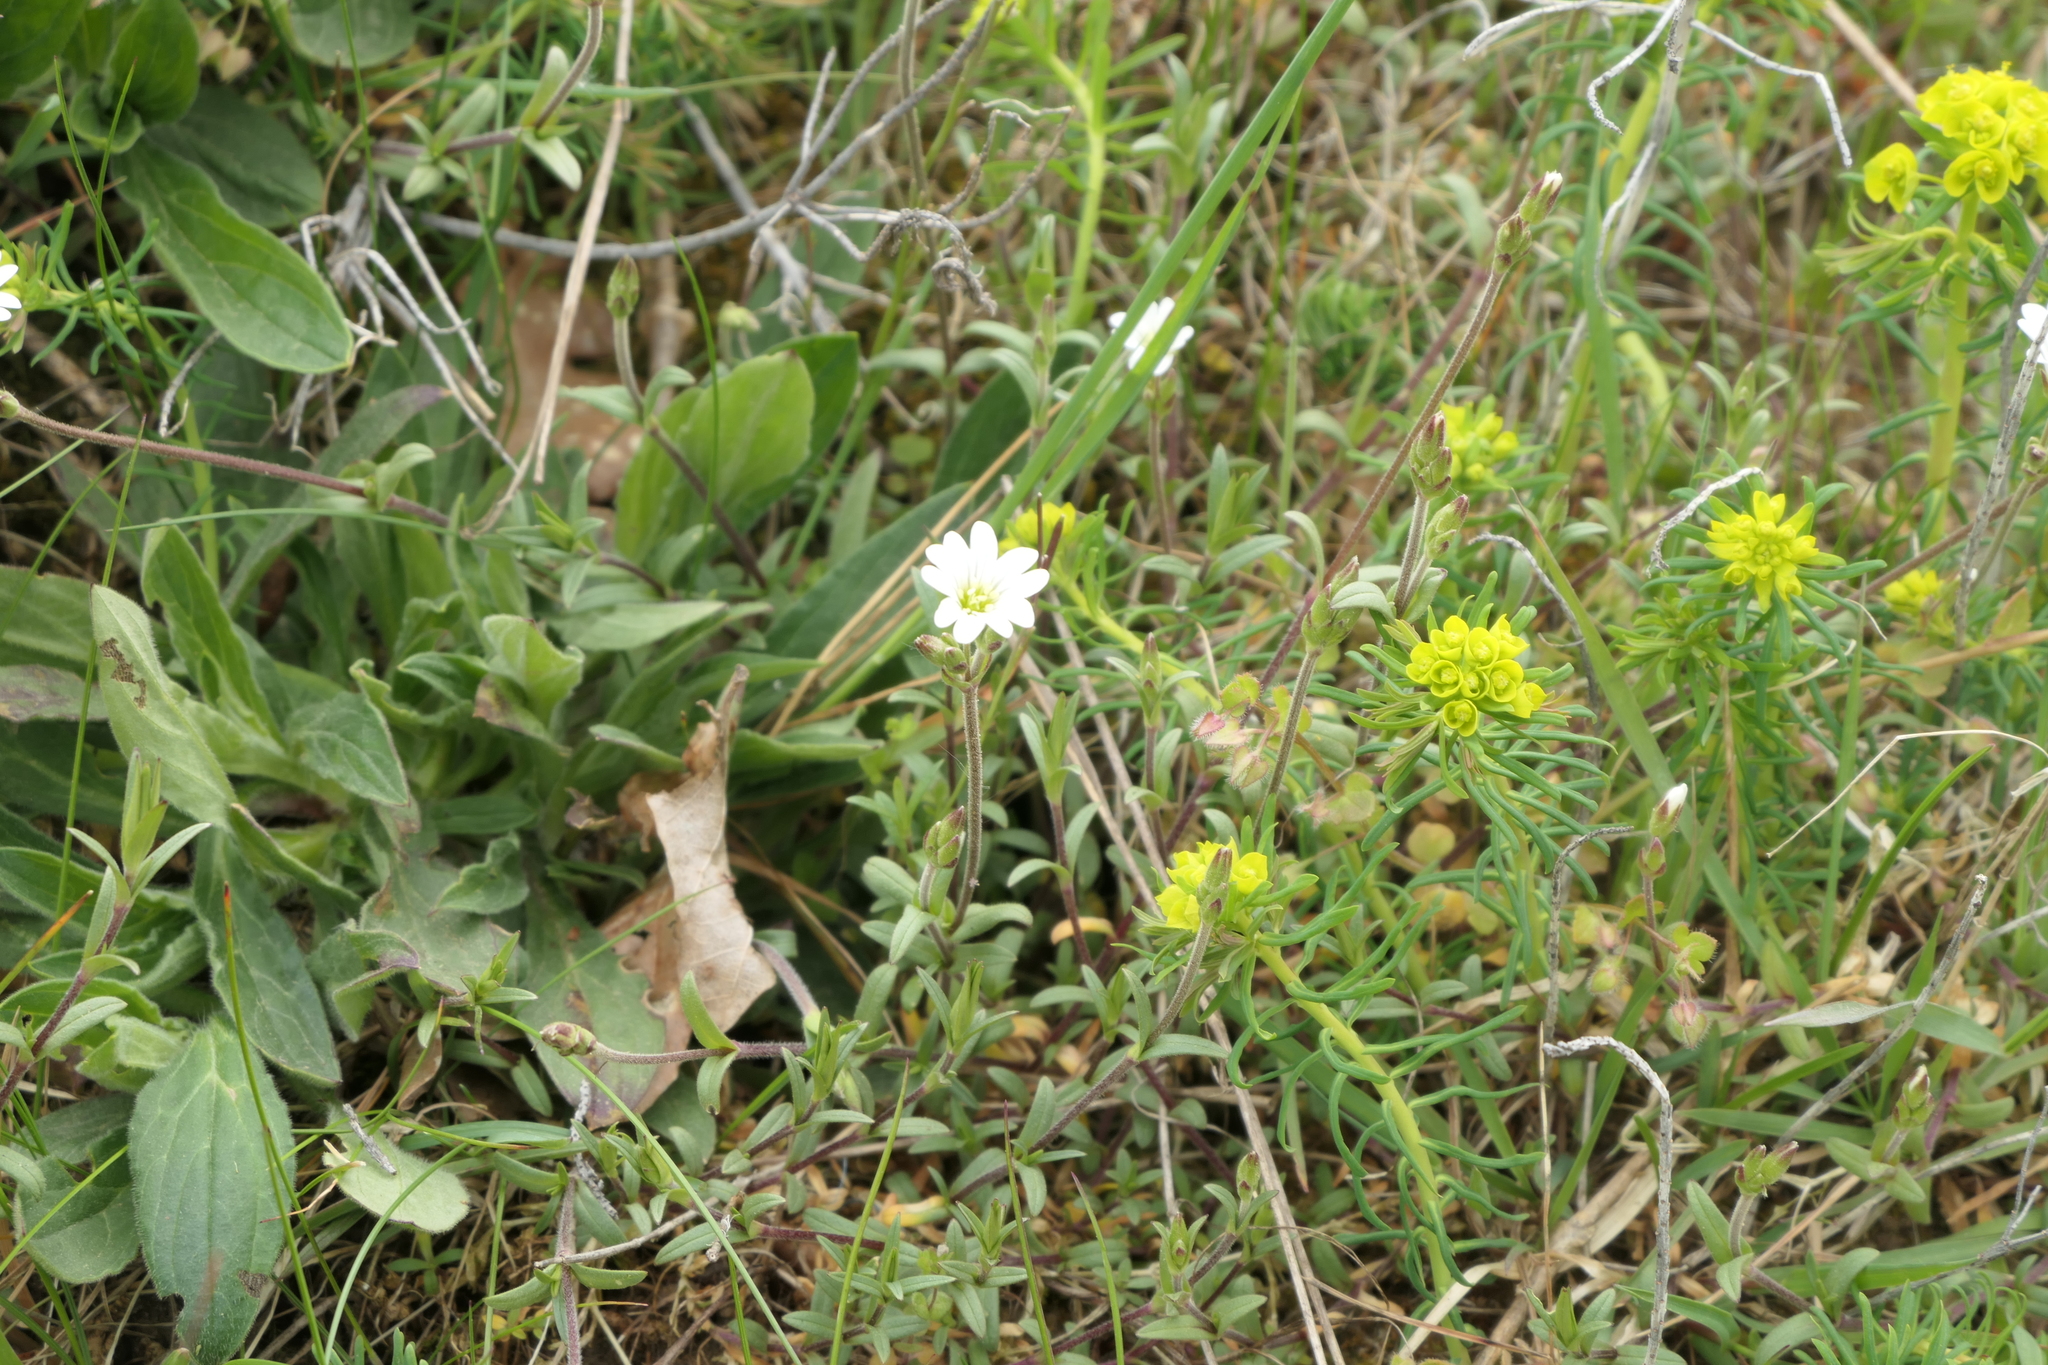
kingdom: Plantae
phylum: Tracheophyta
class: Magnoliopsida
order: Malpighiales
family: Euphorbiaceae
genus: Euphorbia
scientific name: Euphorbia cyparissias
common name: Cypress spurge
